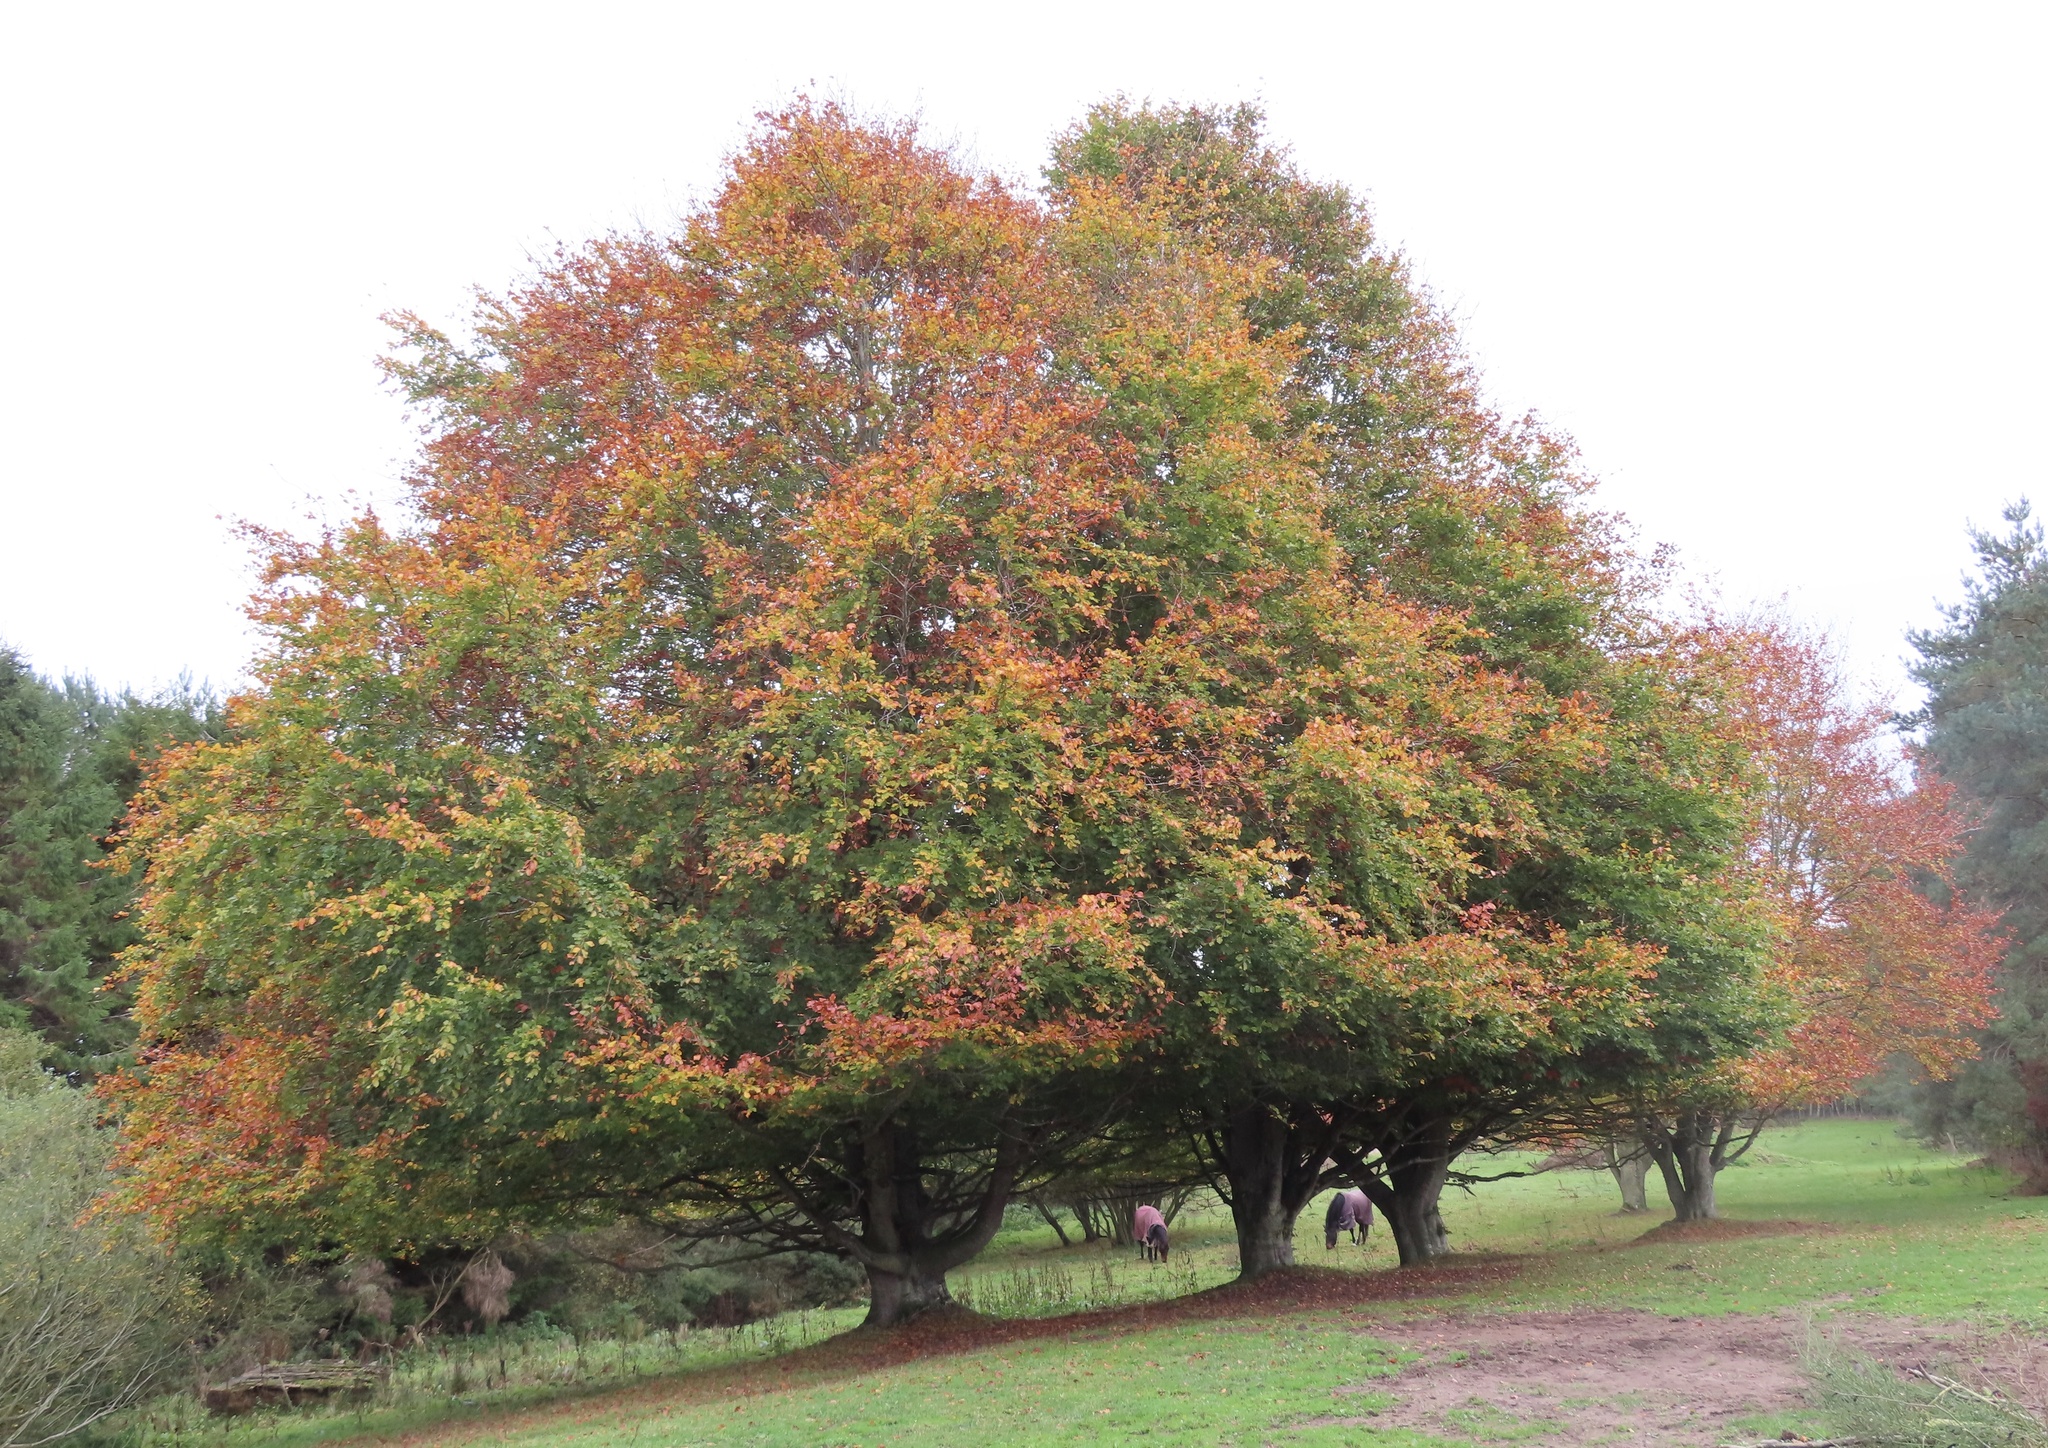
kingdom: Plantae
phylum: Tracheophyta
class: Magnoliopsida
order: Fagales
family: Fagaceae
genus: Fagus
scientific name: Fagus sylvatica
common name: Beech
